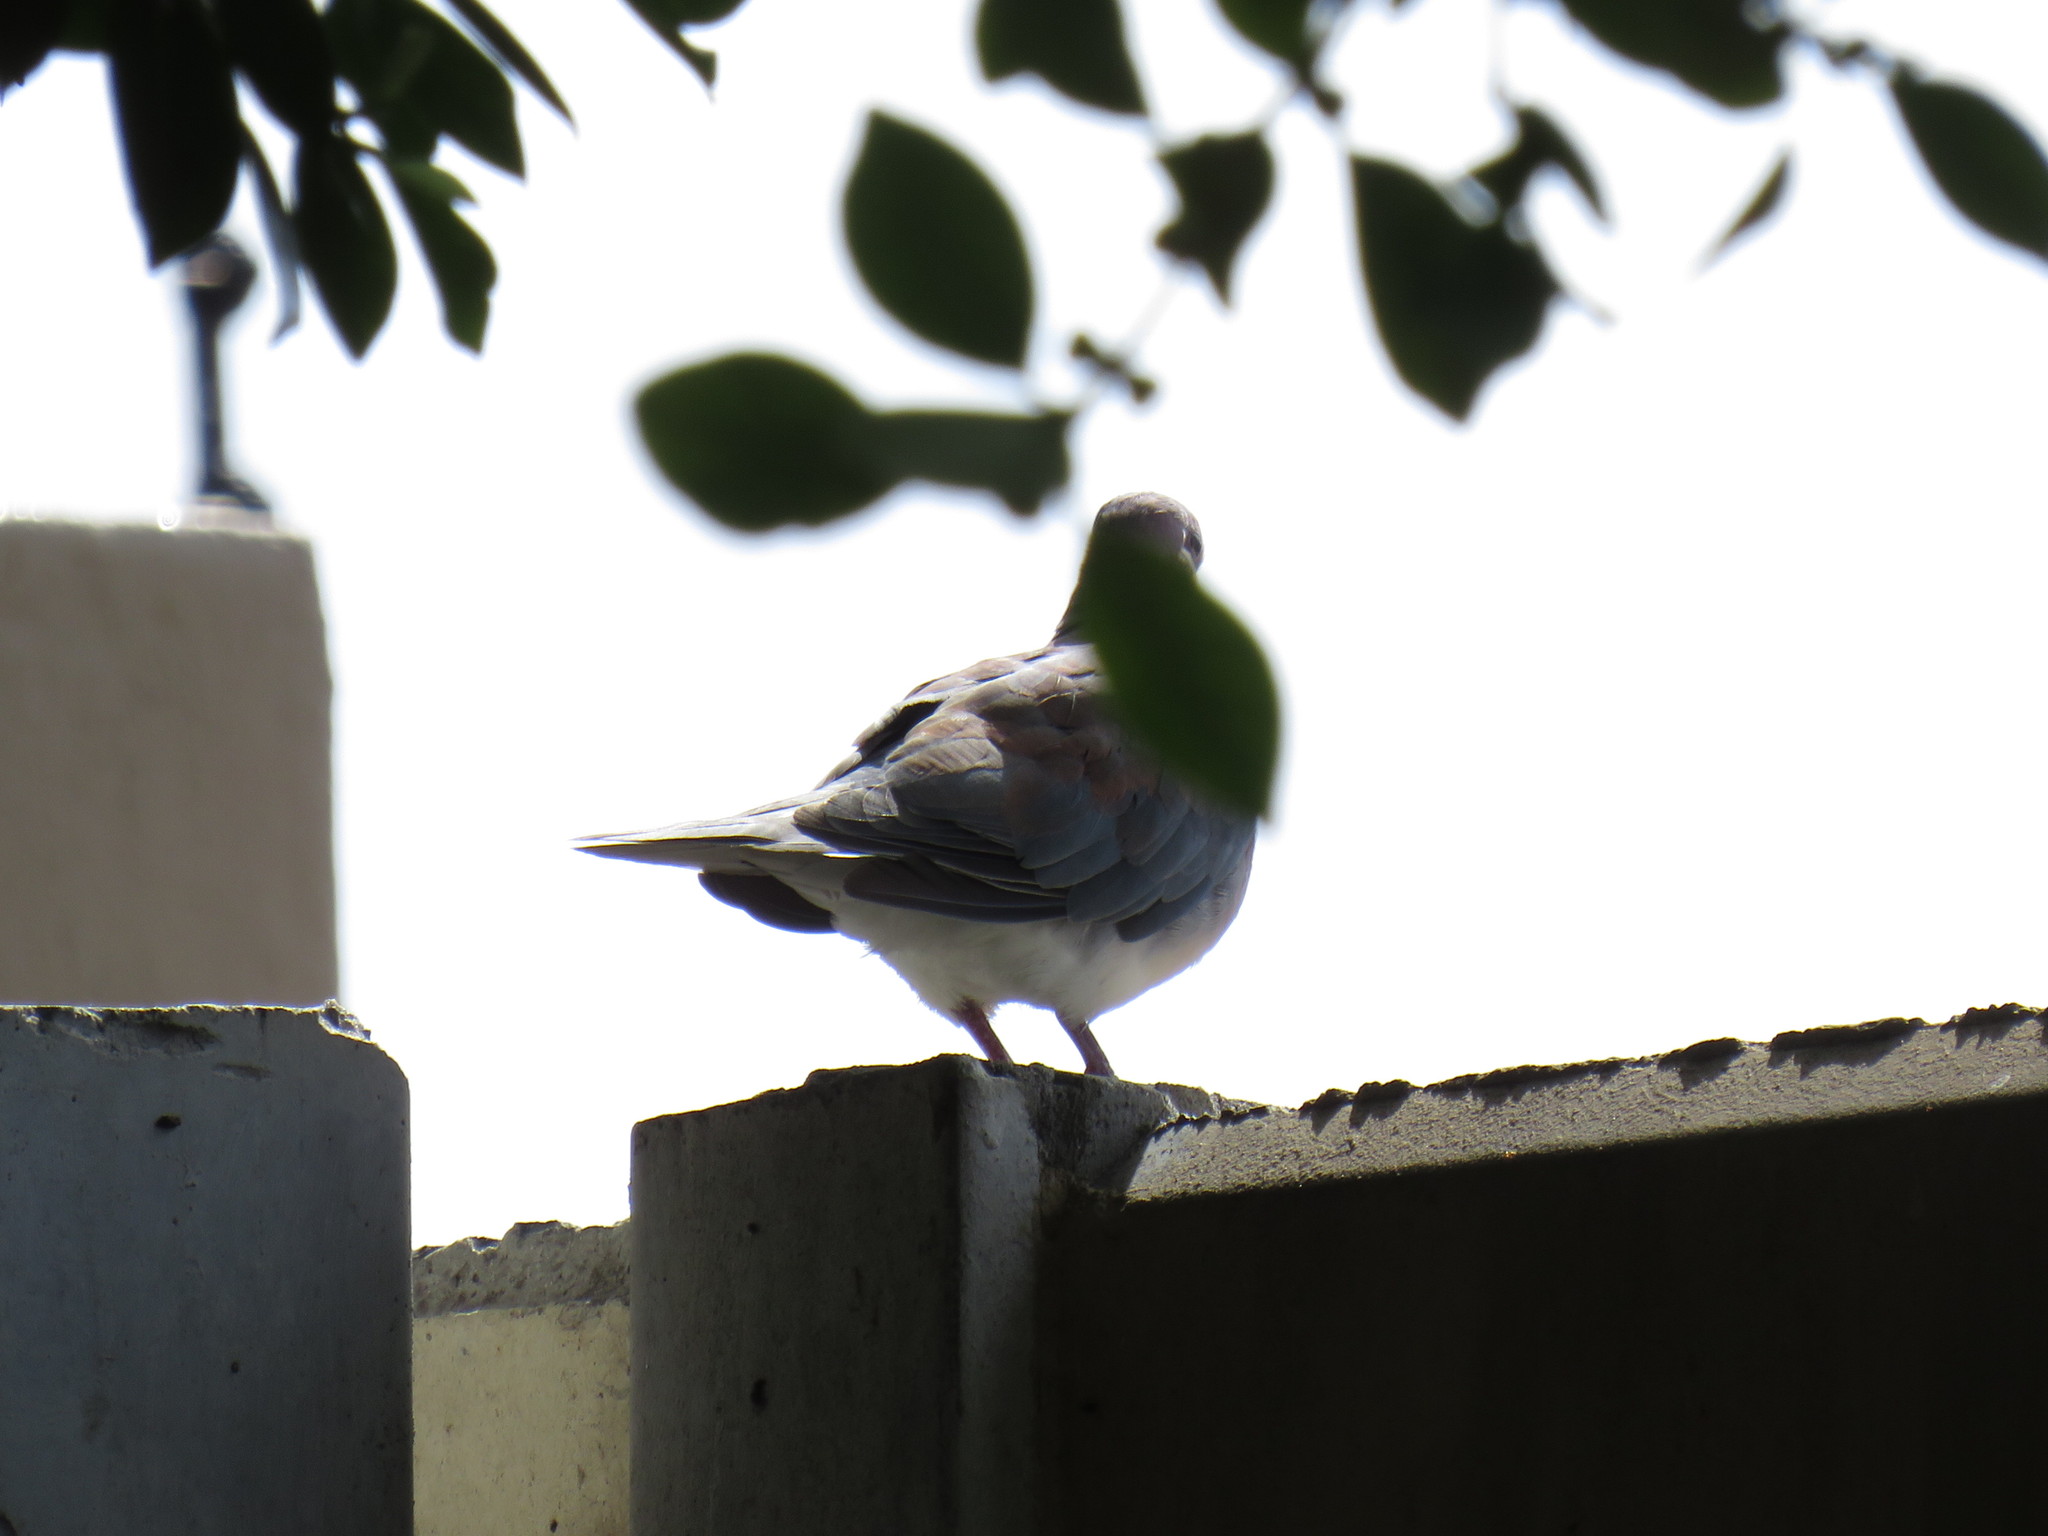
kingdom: Animalia
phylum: Chordata
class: Aves
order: Columbiformes
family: Columbidae
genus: Spilopelia
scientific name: Spilopelia senegalensis
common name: Laughing dove
